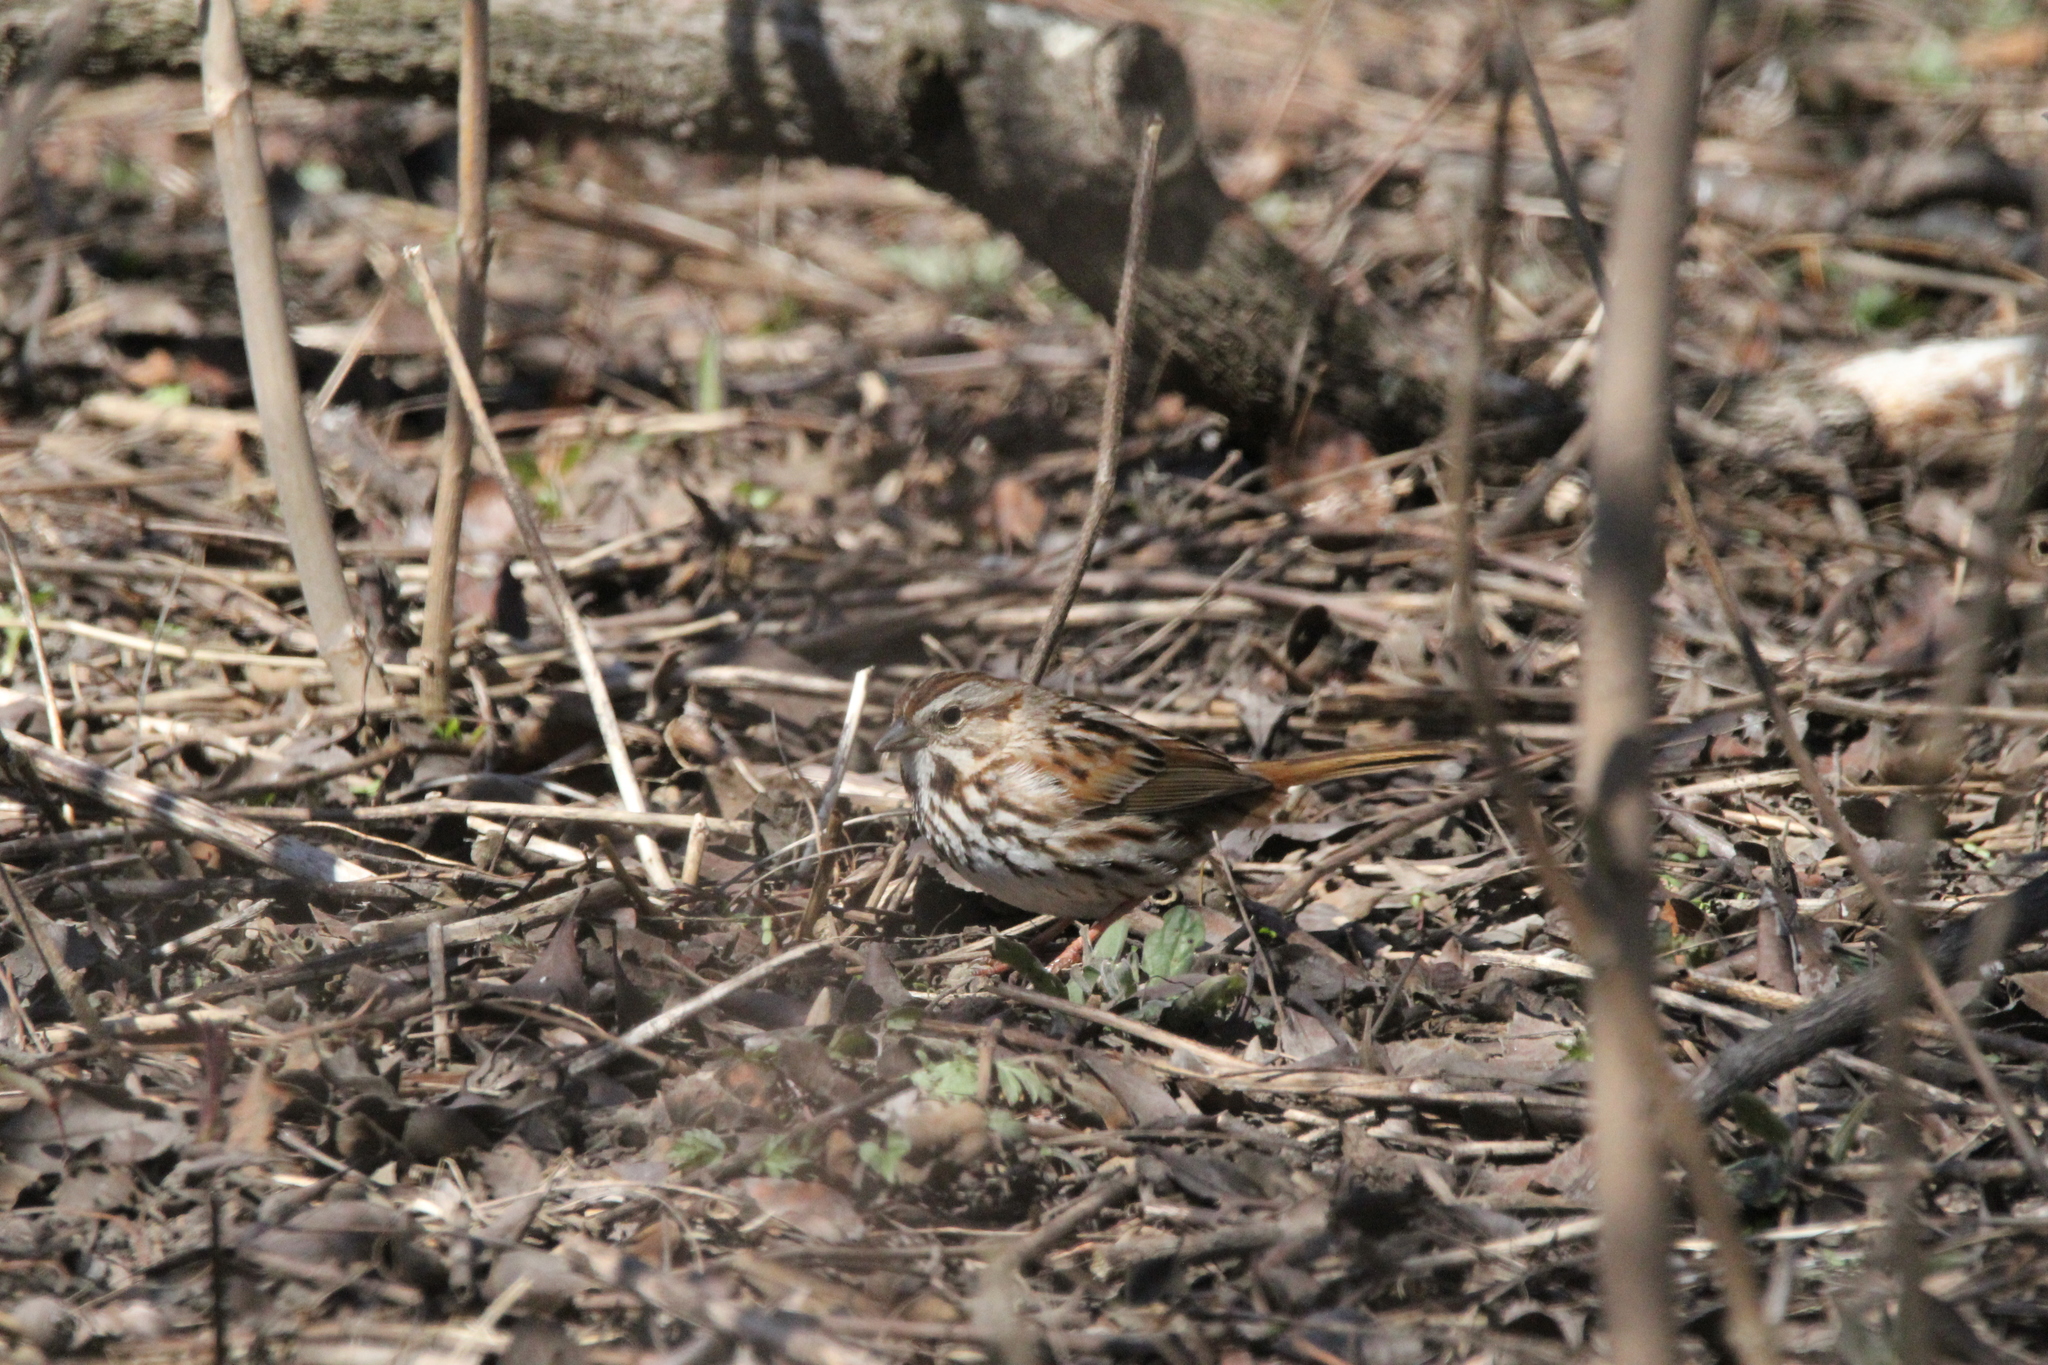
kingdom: Animalia
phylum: Chordata
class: Aves
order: Passeriformes
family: Passerellidae
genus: Melospiza
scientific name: Melospiza melodia
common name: Song sparrow
